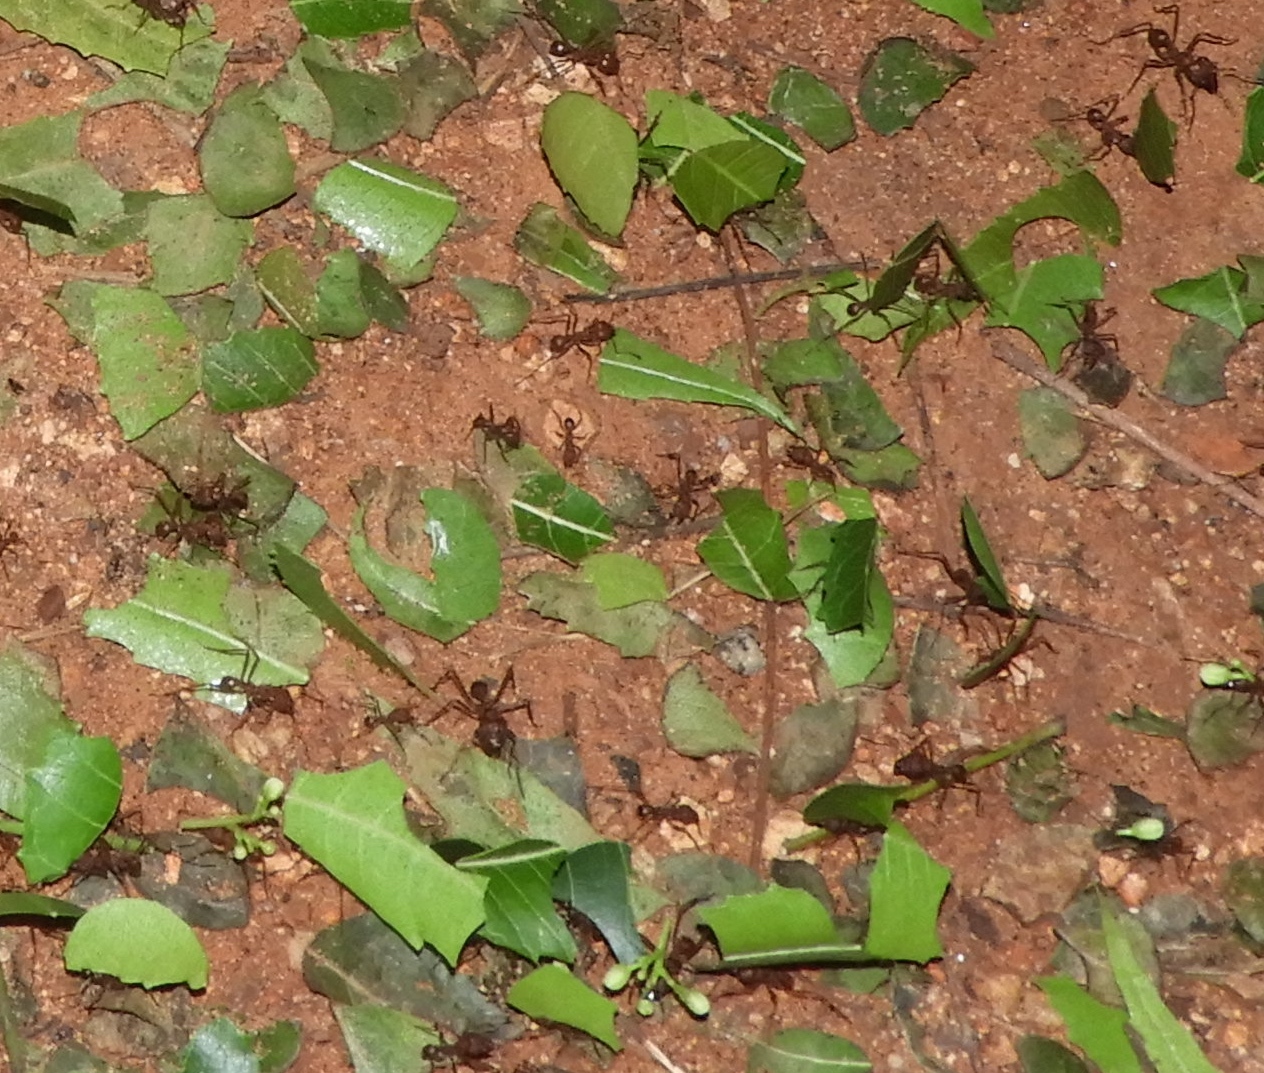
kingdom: Animalia
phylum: Arthropoda
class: Insecta
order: Hymenoptera
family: Formicidae
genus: Atta
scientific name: Atta mexicana
